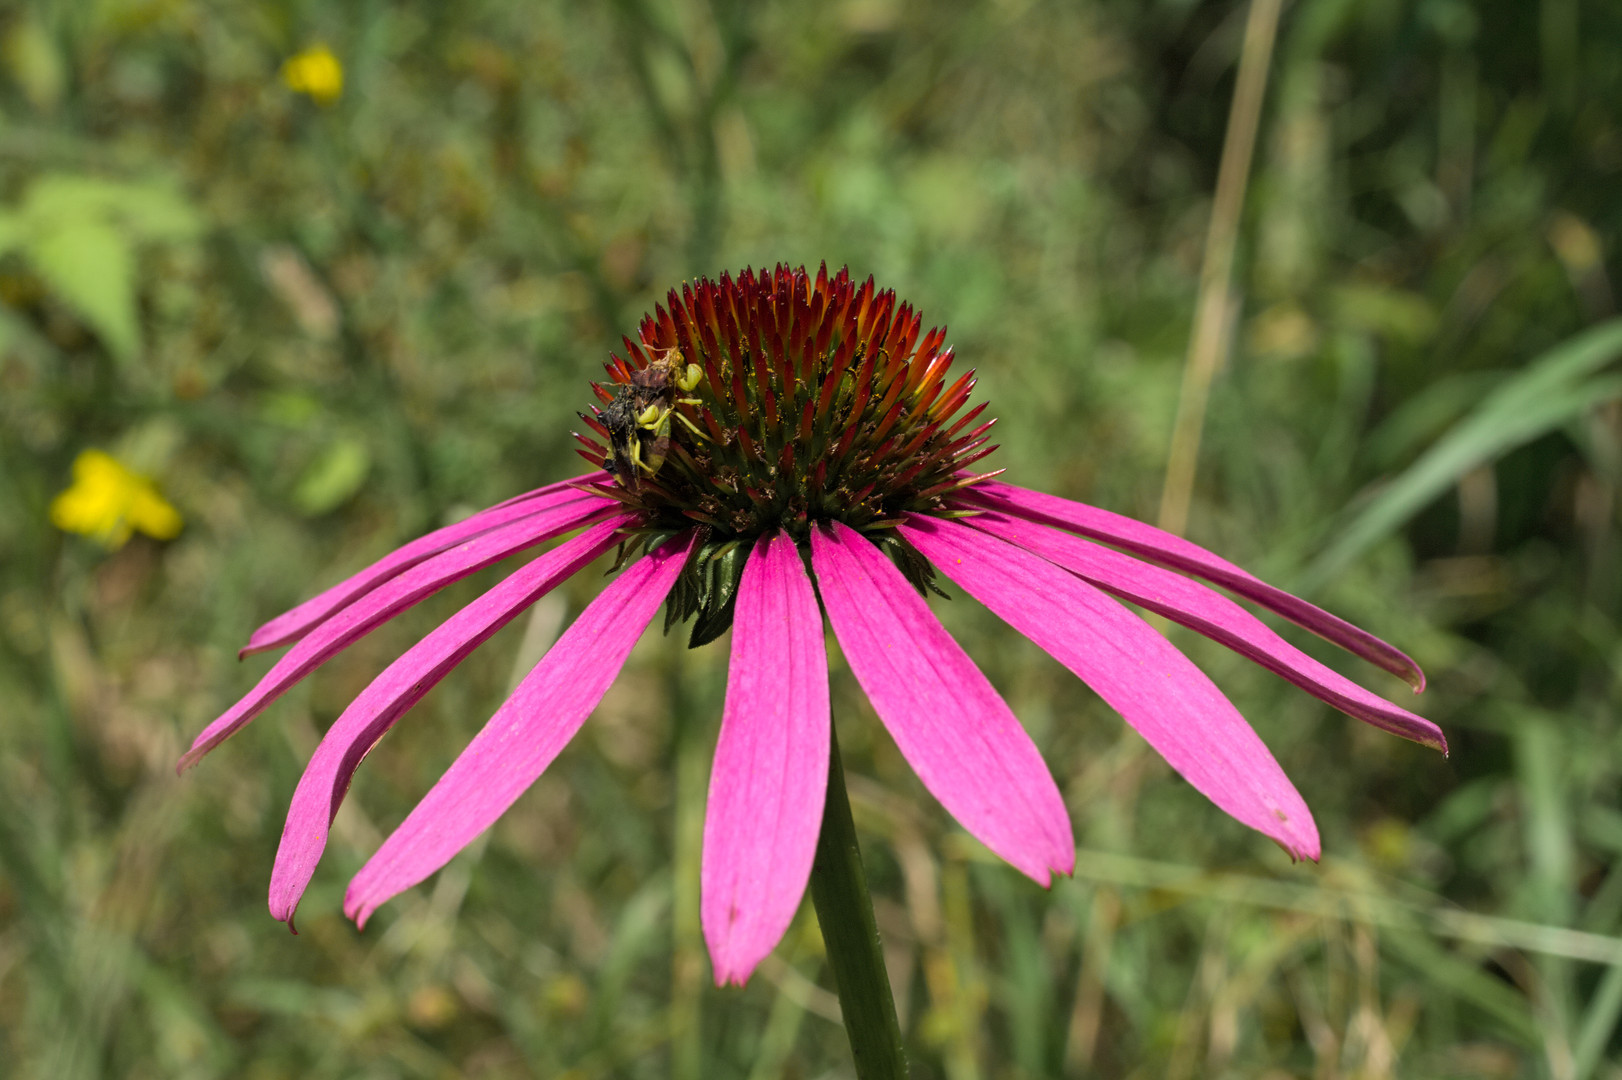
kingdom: Plantae
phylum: Tracheophyta
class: Magnoliopsida
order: Asterales
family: Asteraceae
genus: Echinacea
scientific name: Echinacea purpurea
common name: Broad-leaved purple coneflower
